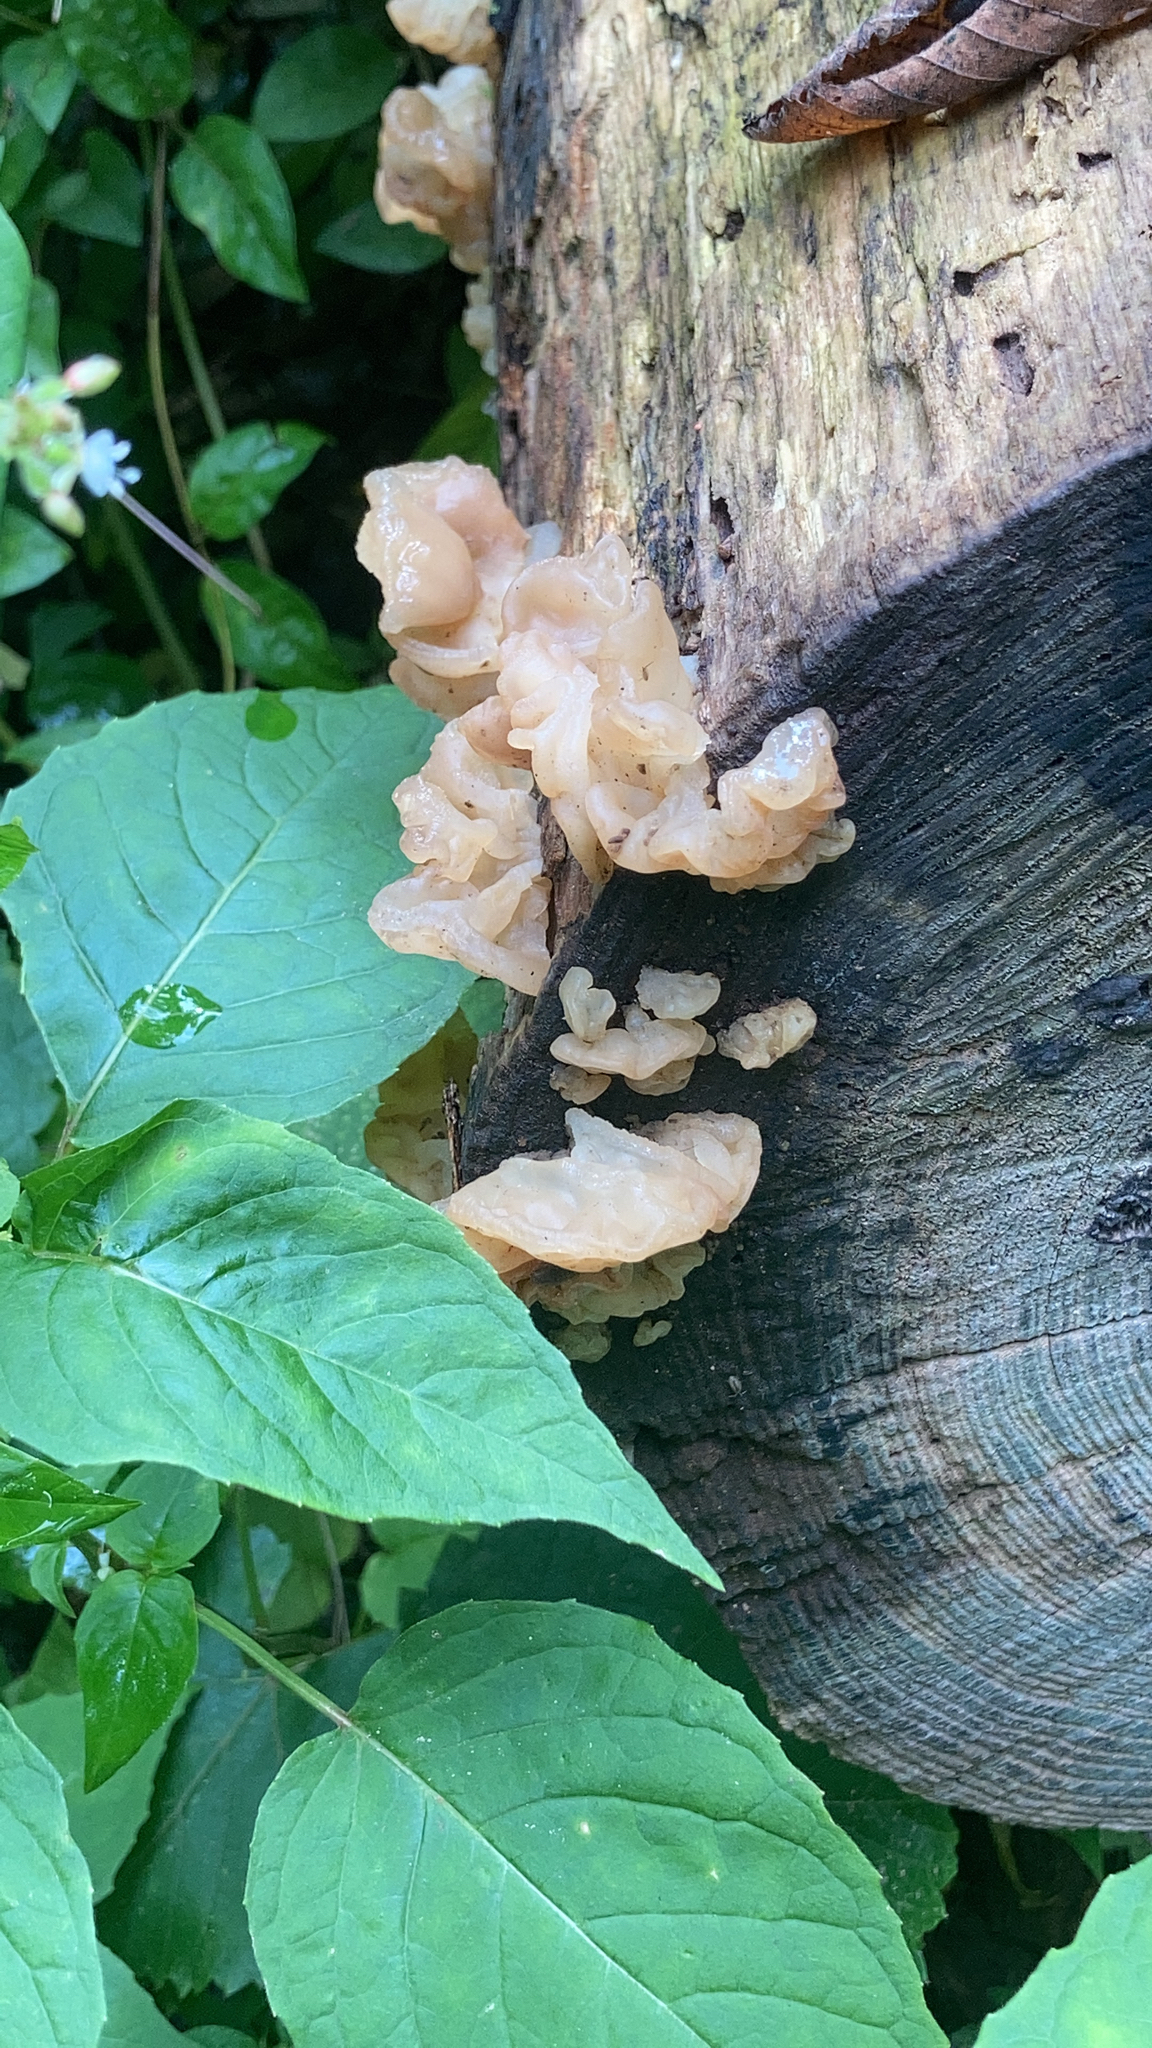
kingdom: Fungi
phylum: Basidiomycota
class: Agaricomycetes
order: Auriculariales
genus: Ductifera
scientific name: Ductifera pululahuana
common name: White jelly fungus
